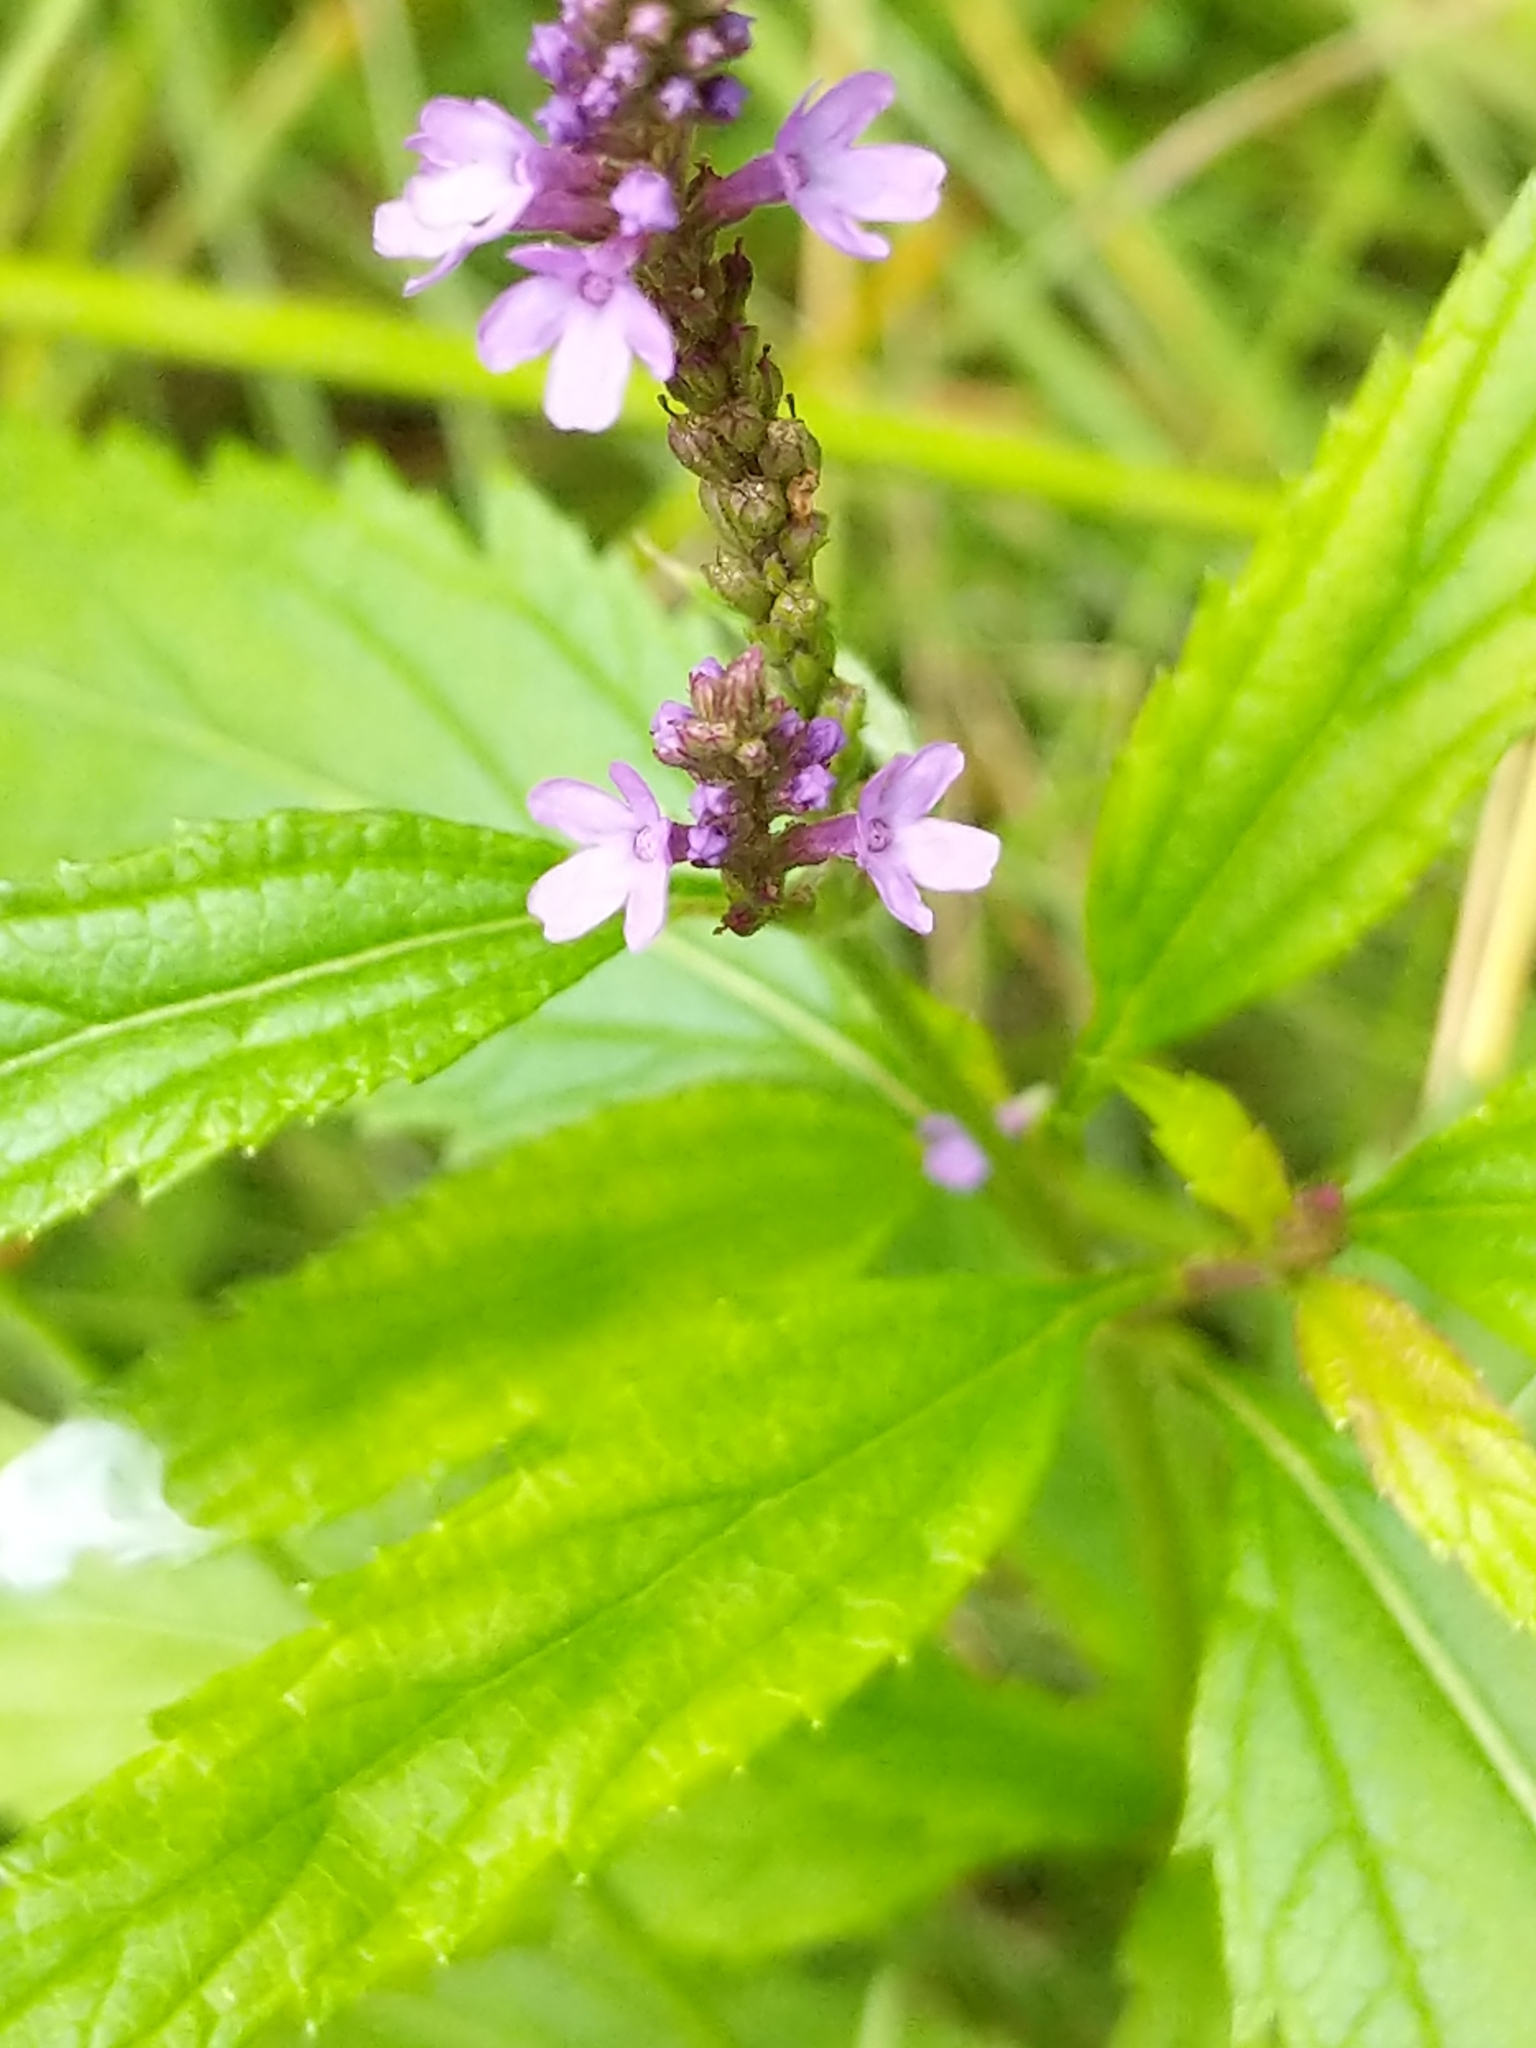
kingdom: Plantae
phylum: Tracheophyta
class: Magnoliopsida
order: Lamiales
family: Verbenaceae
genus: Verbena
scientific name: Verbena hastata
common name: American blue vervain
